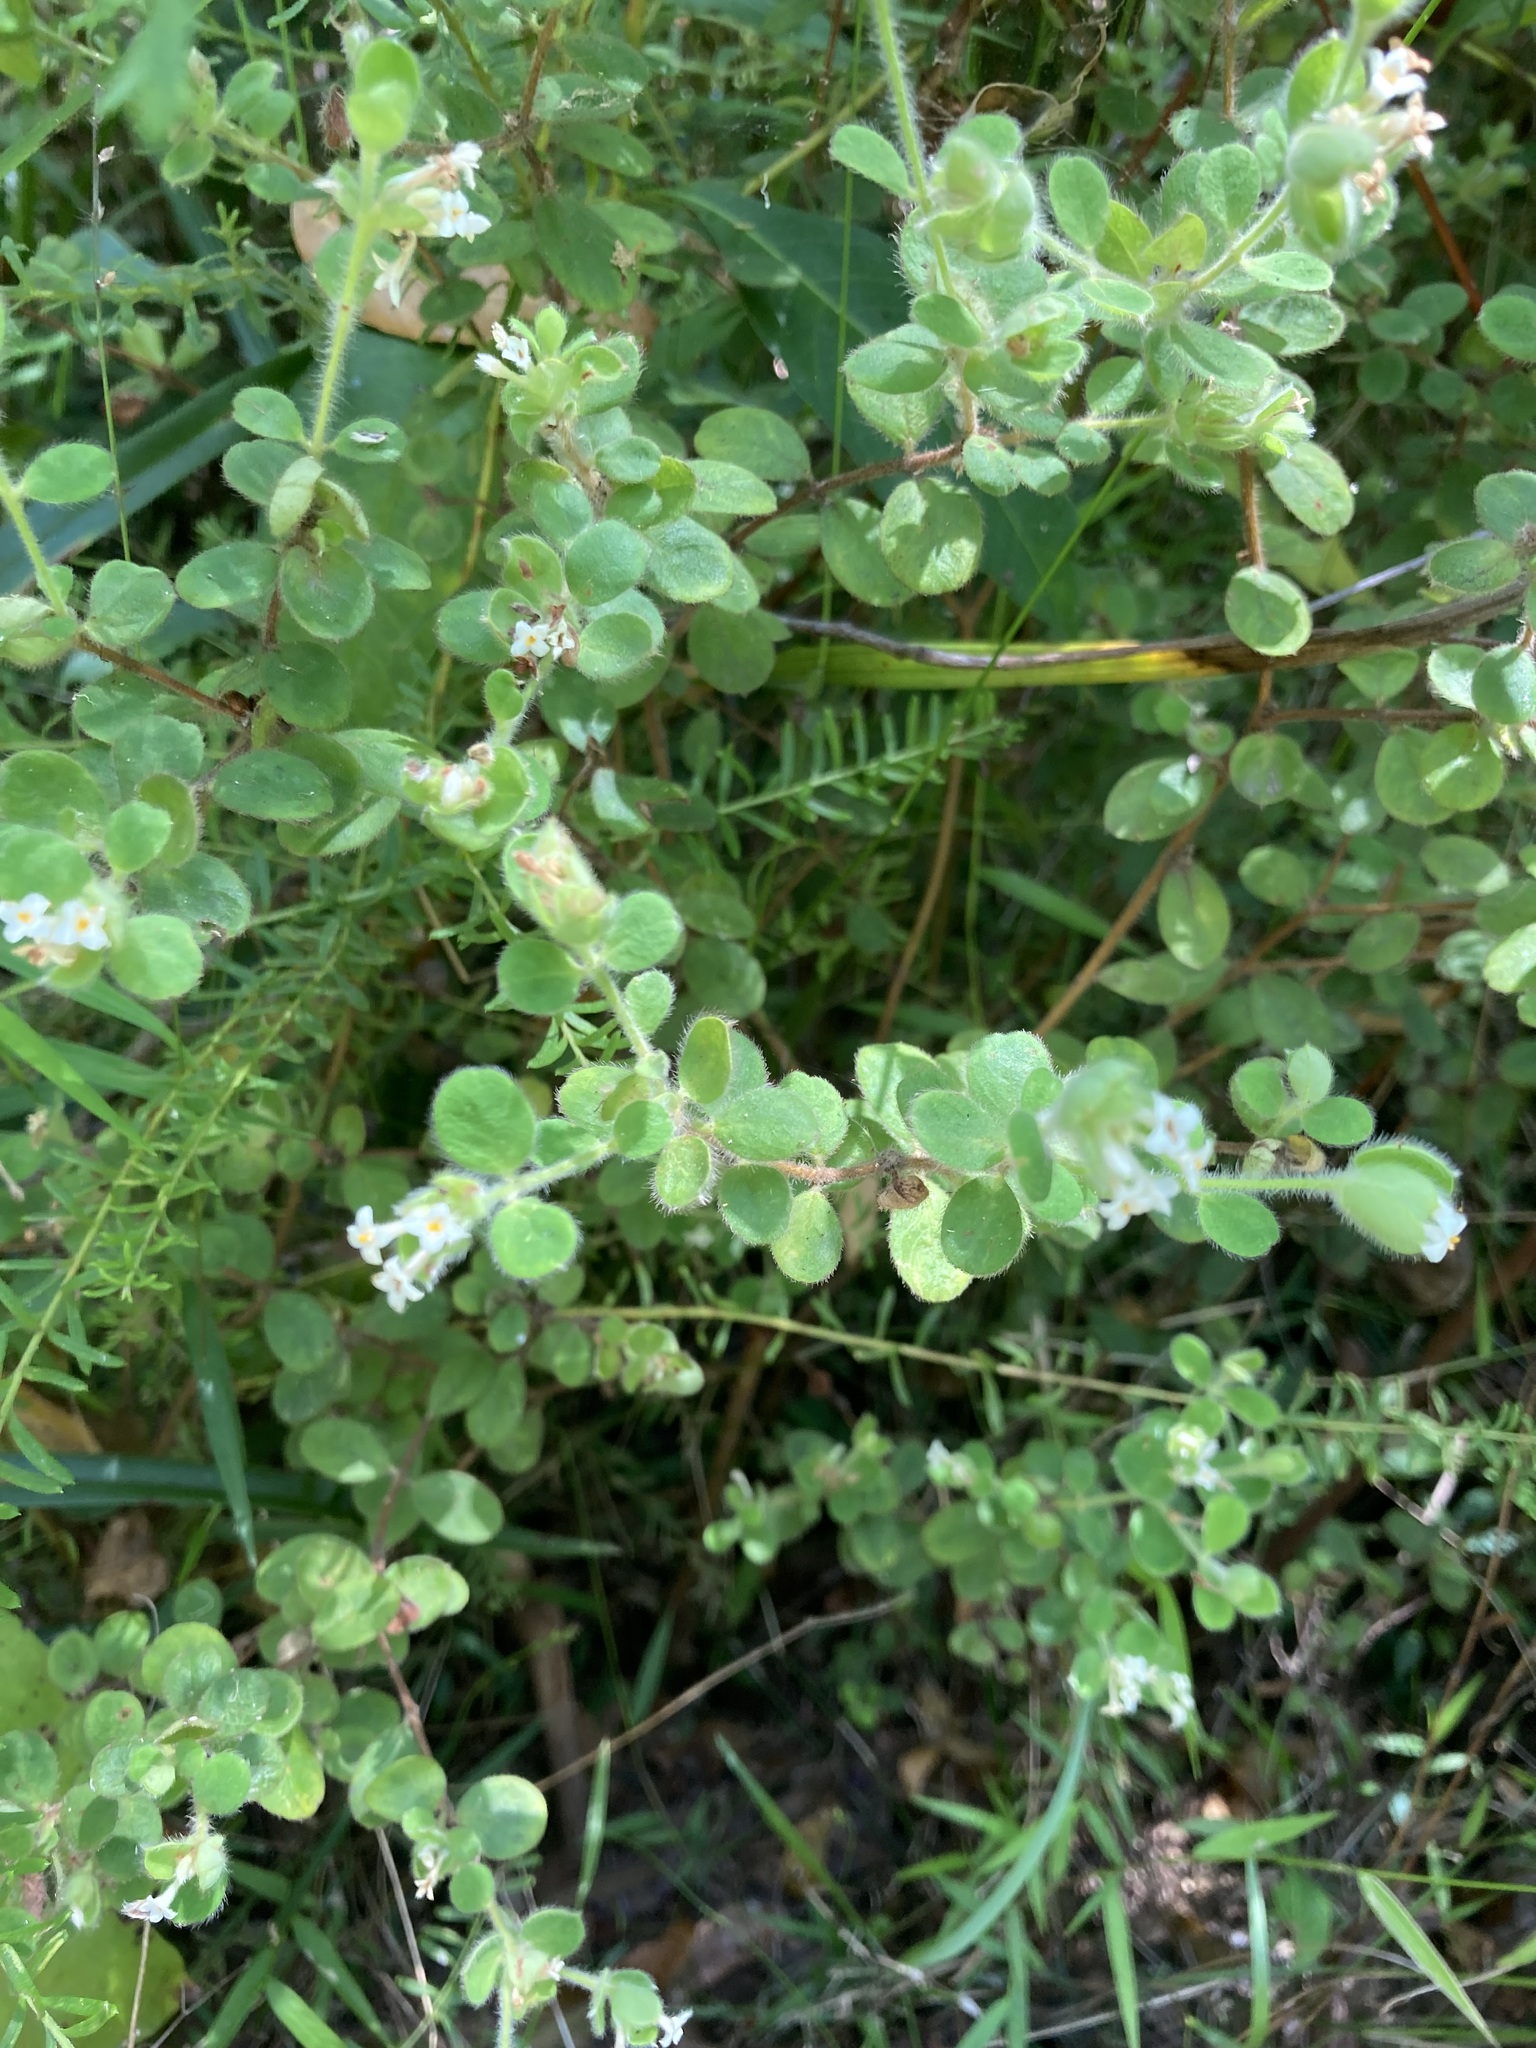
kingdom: Plantae
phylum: Tracheophyta
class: Magnoliopsida
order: Malvales
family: Thymelaeaceae
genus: Pimelea
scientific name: Pimelea altior
